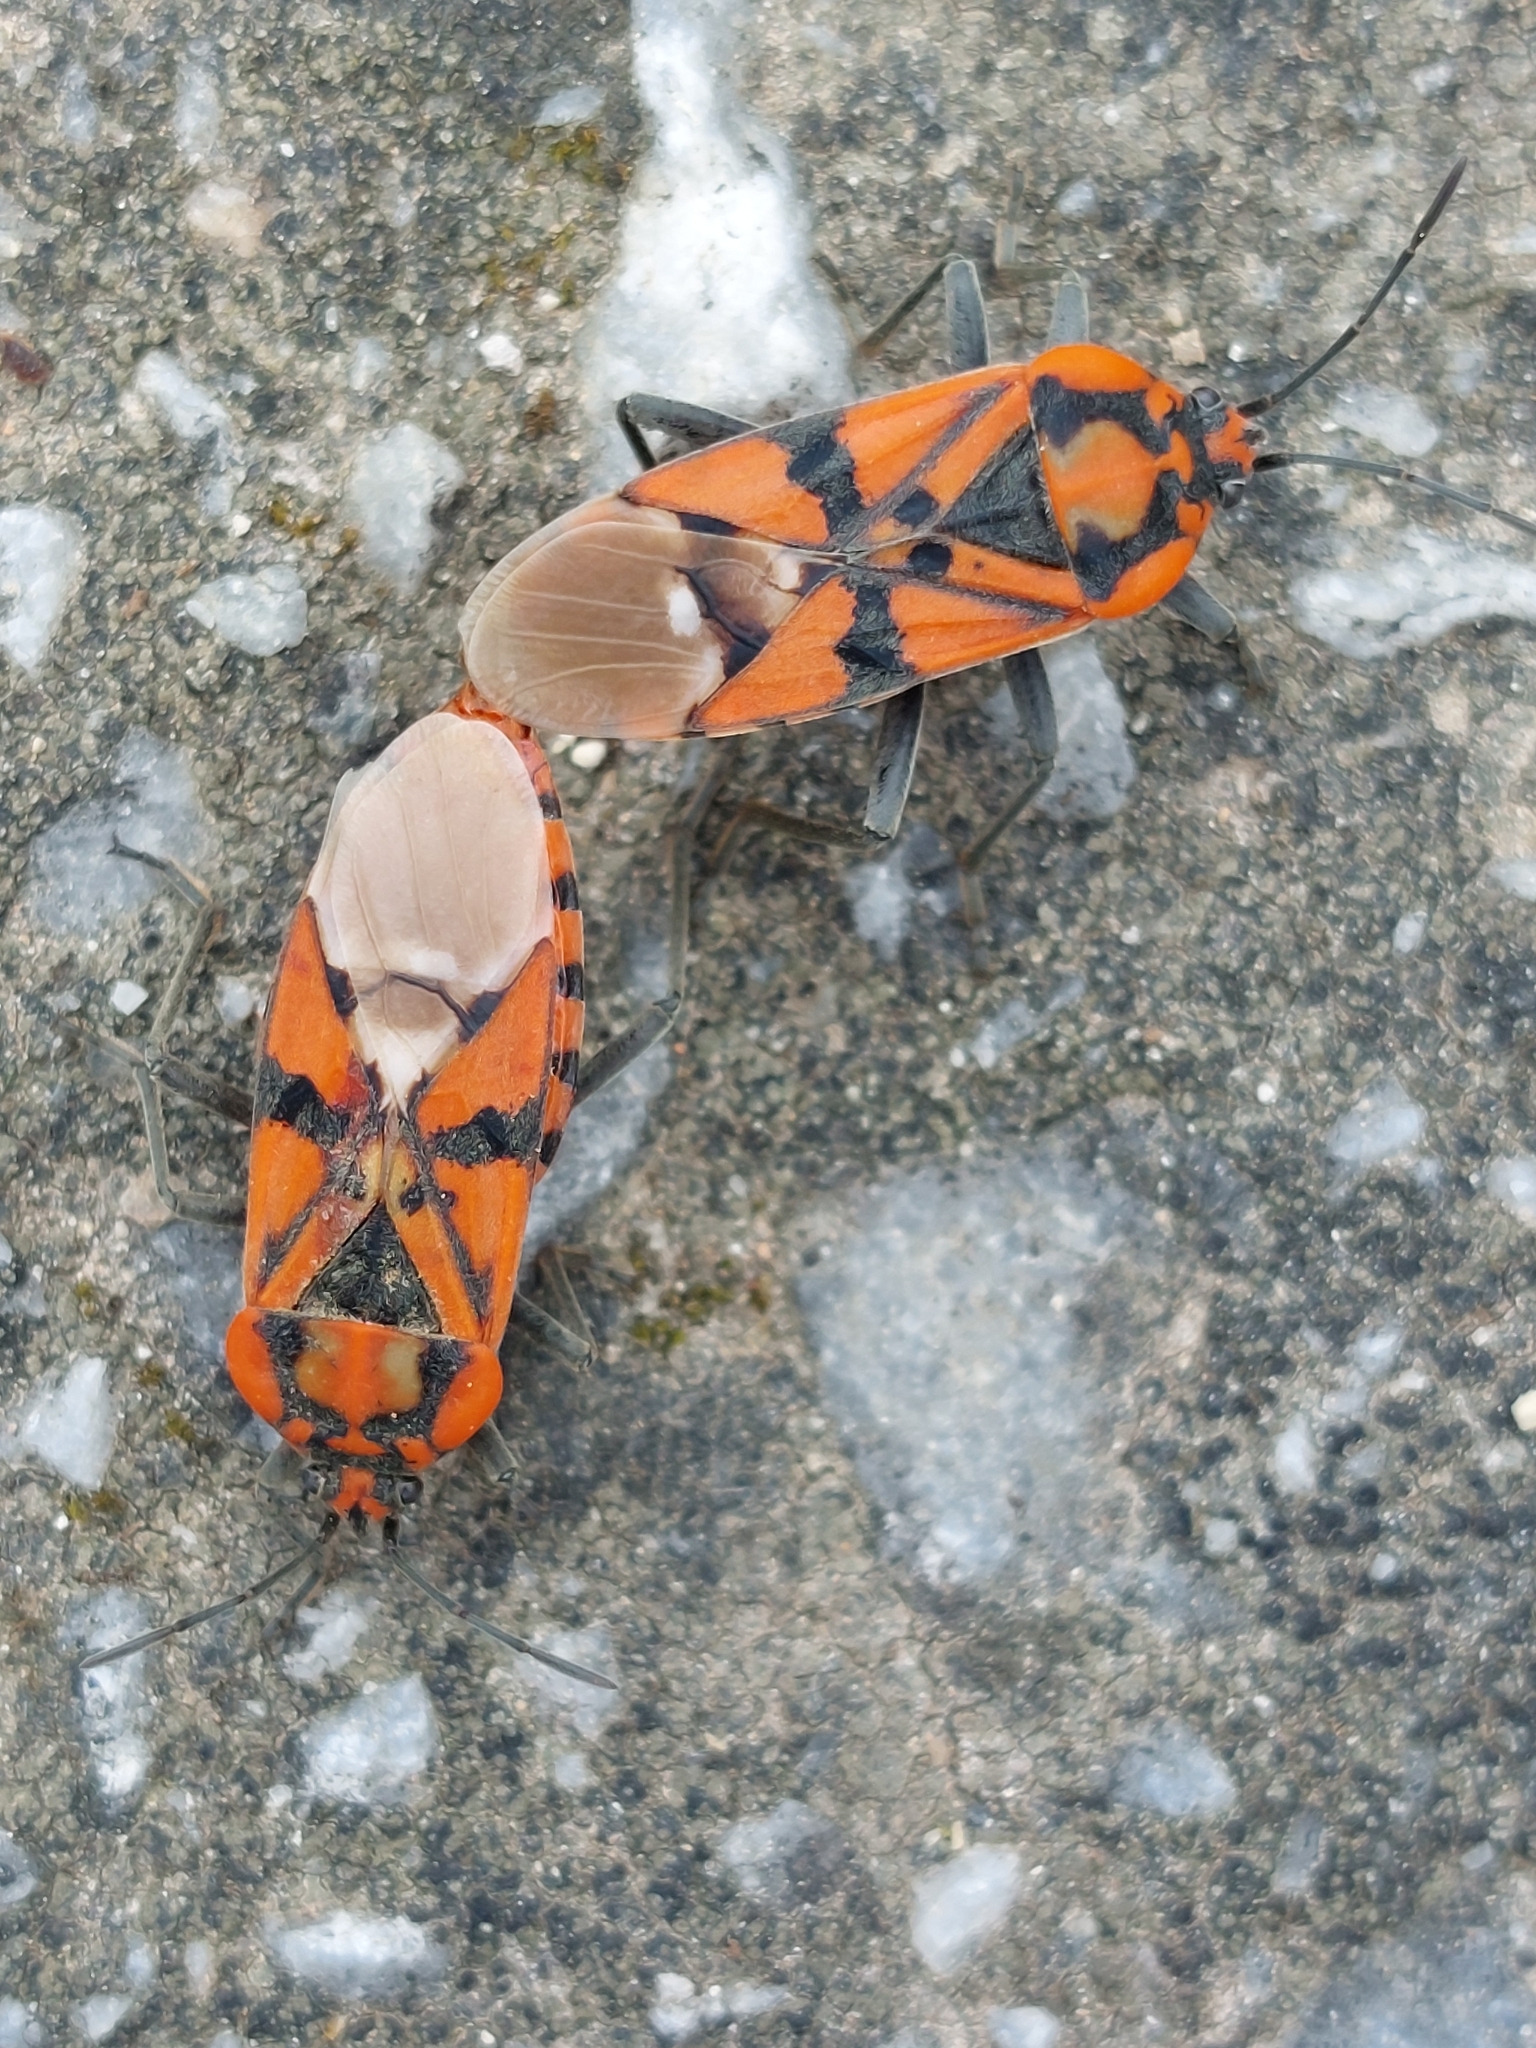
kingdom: Animalia
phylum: Arthropoda
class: Insecta
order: Hemiptera
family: Lygaeidae
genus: Spilostethus
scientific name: Spilostethus pandurus
